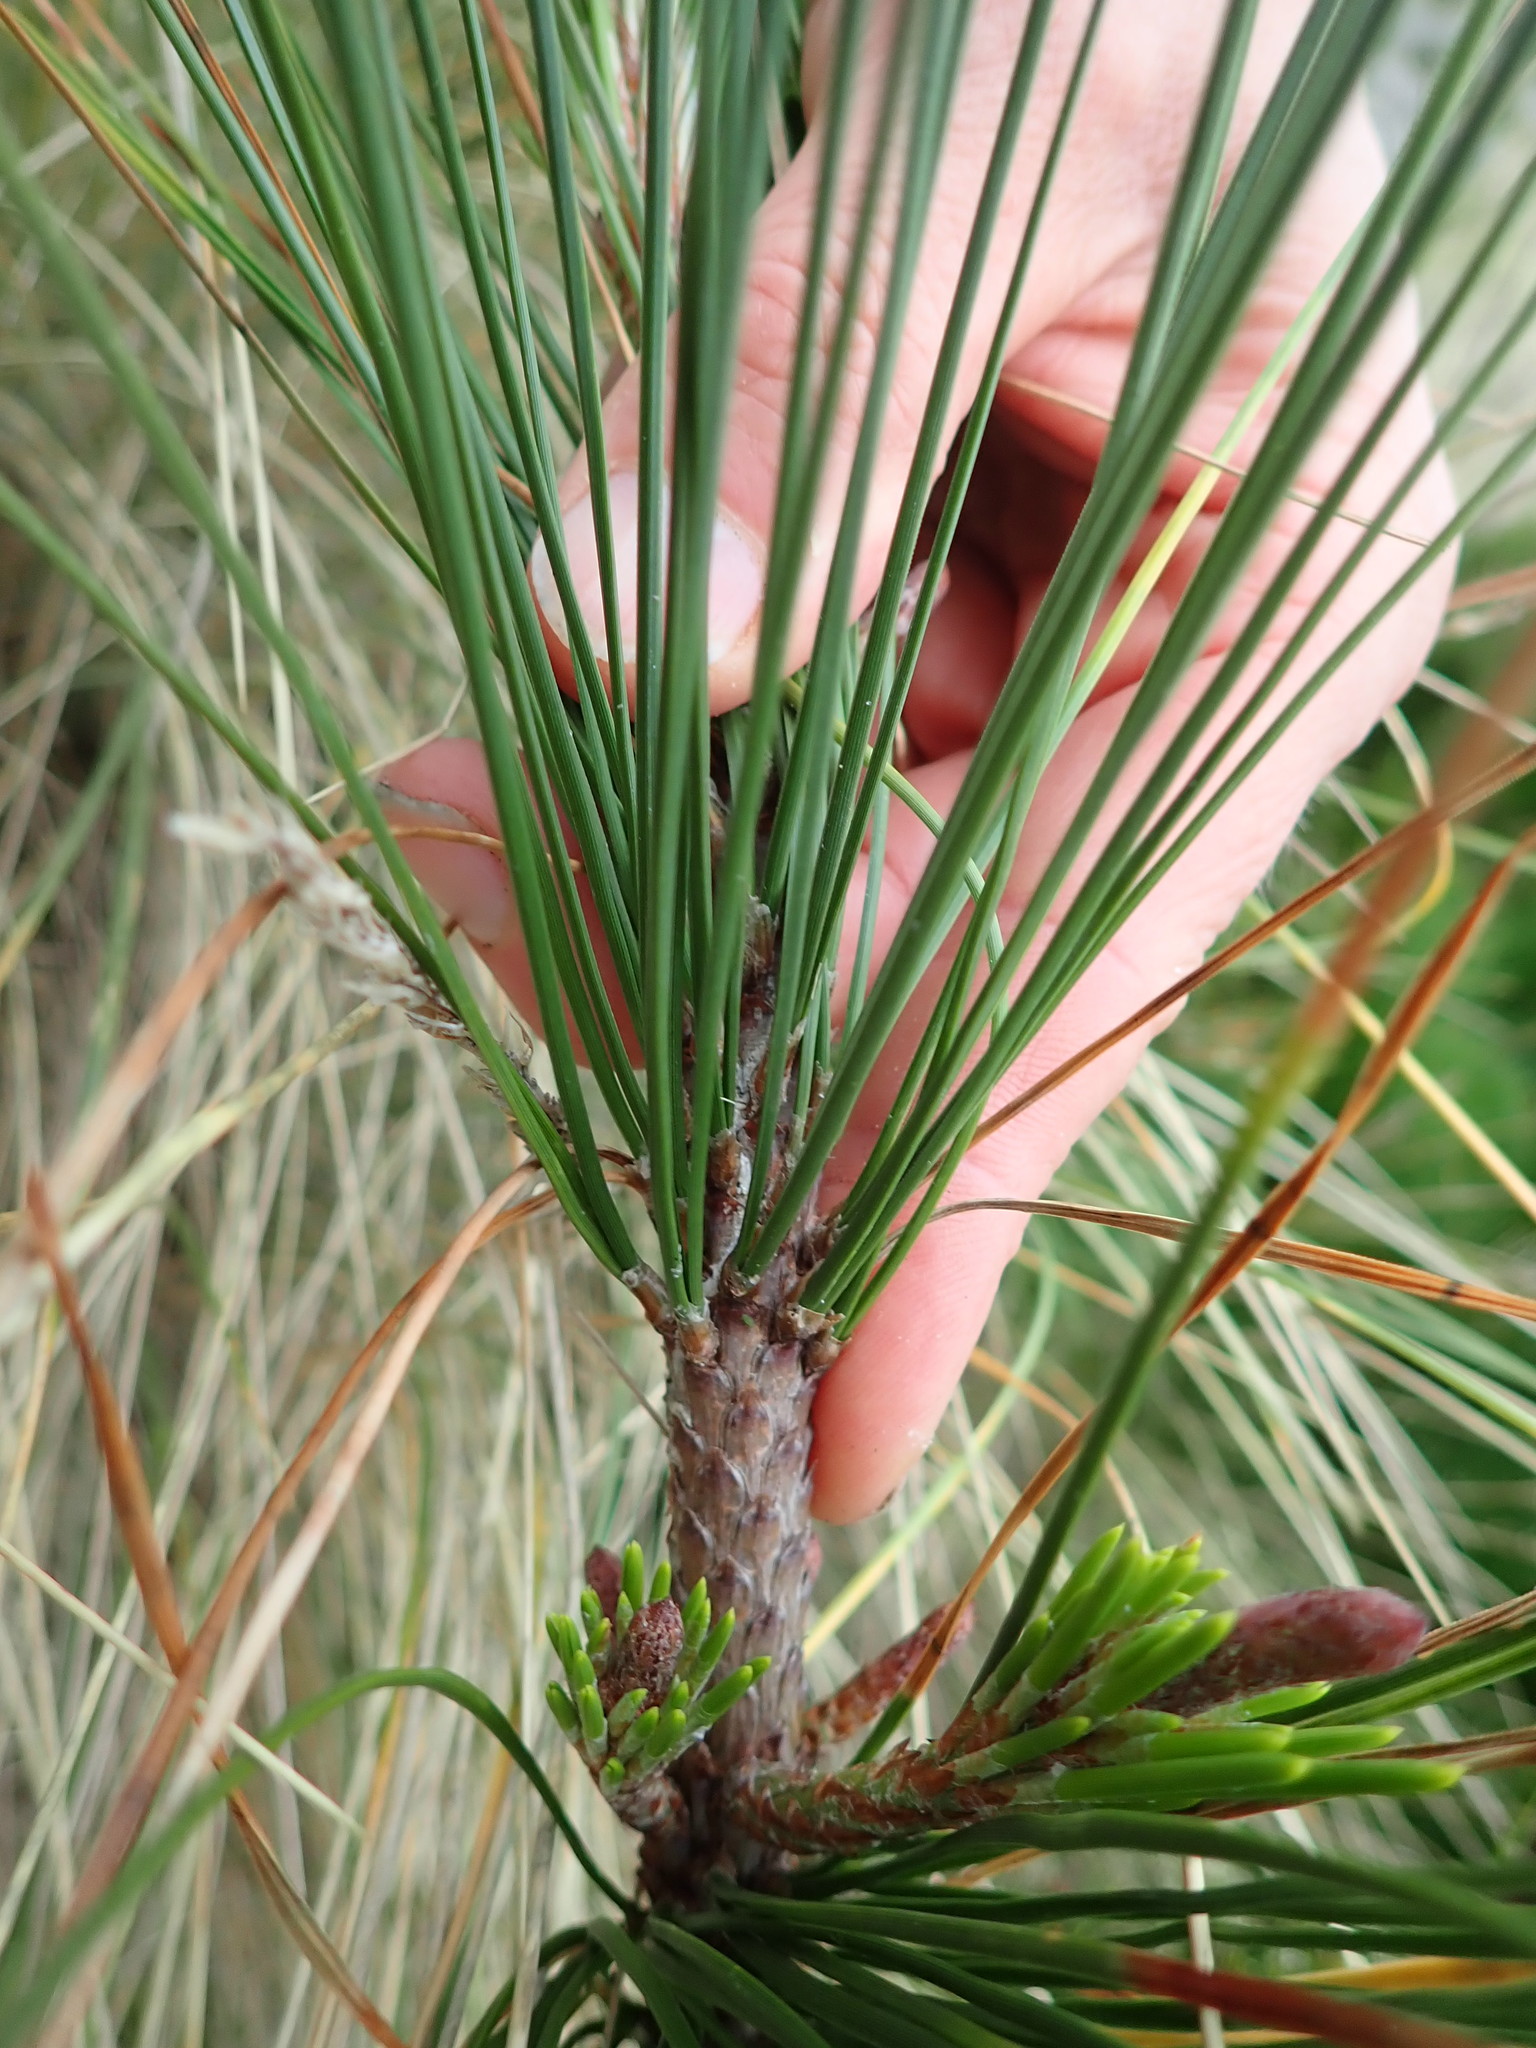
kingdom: Plantae
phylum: Tracheophyta
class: Pinopsida
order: Pinales
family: Pinaceae
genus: Pinus
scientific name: Pinus radiata
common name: Monterey pine
